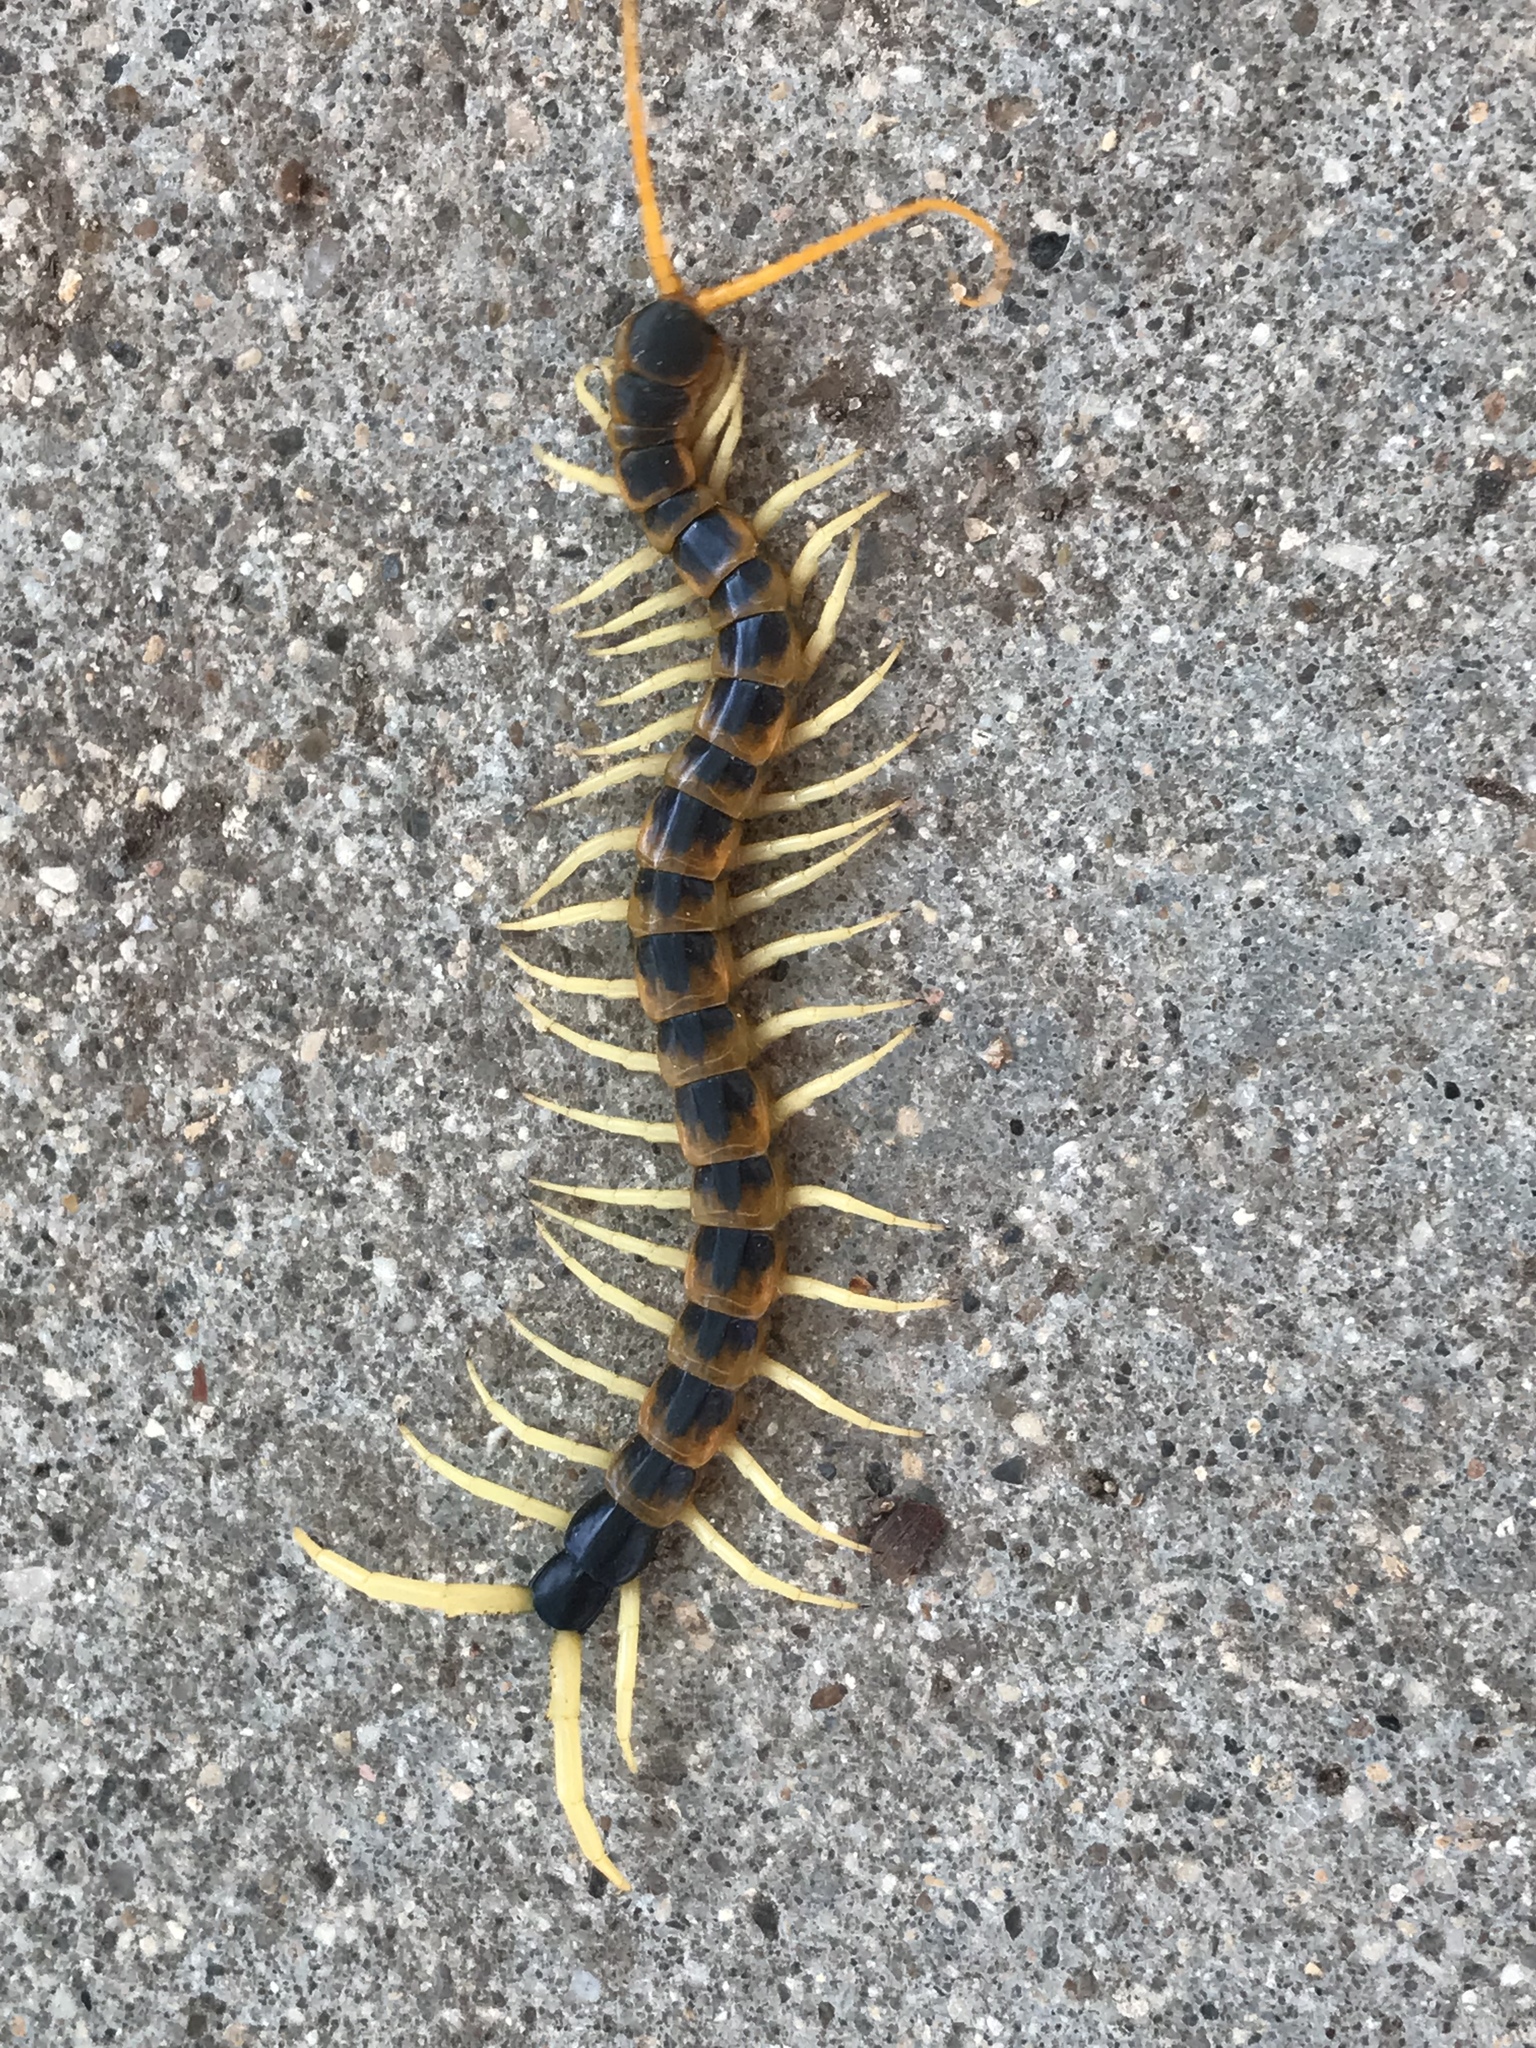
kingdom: Animalia
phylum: Arthropoda
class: Chilopoda
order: Scolopendromorpha
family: Scolopendridae
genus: Scolopendra
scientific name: Scolopendra heros
